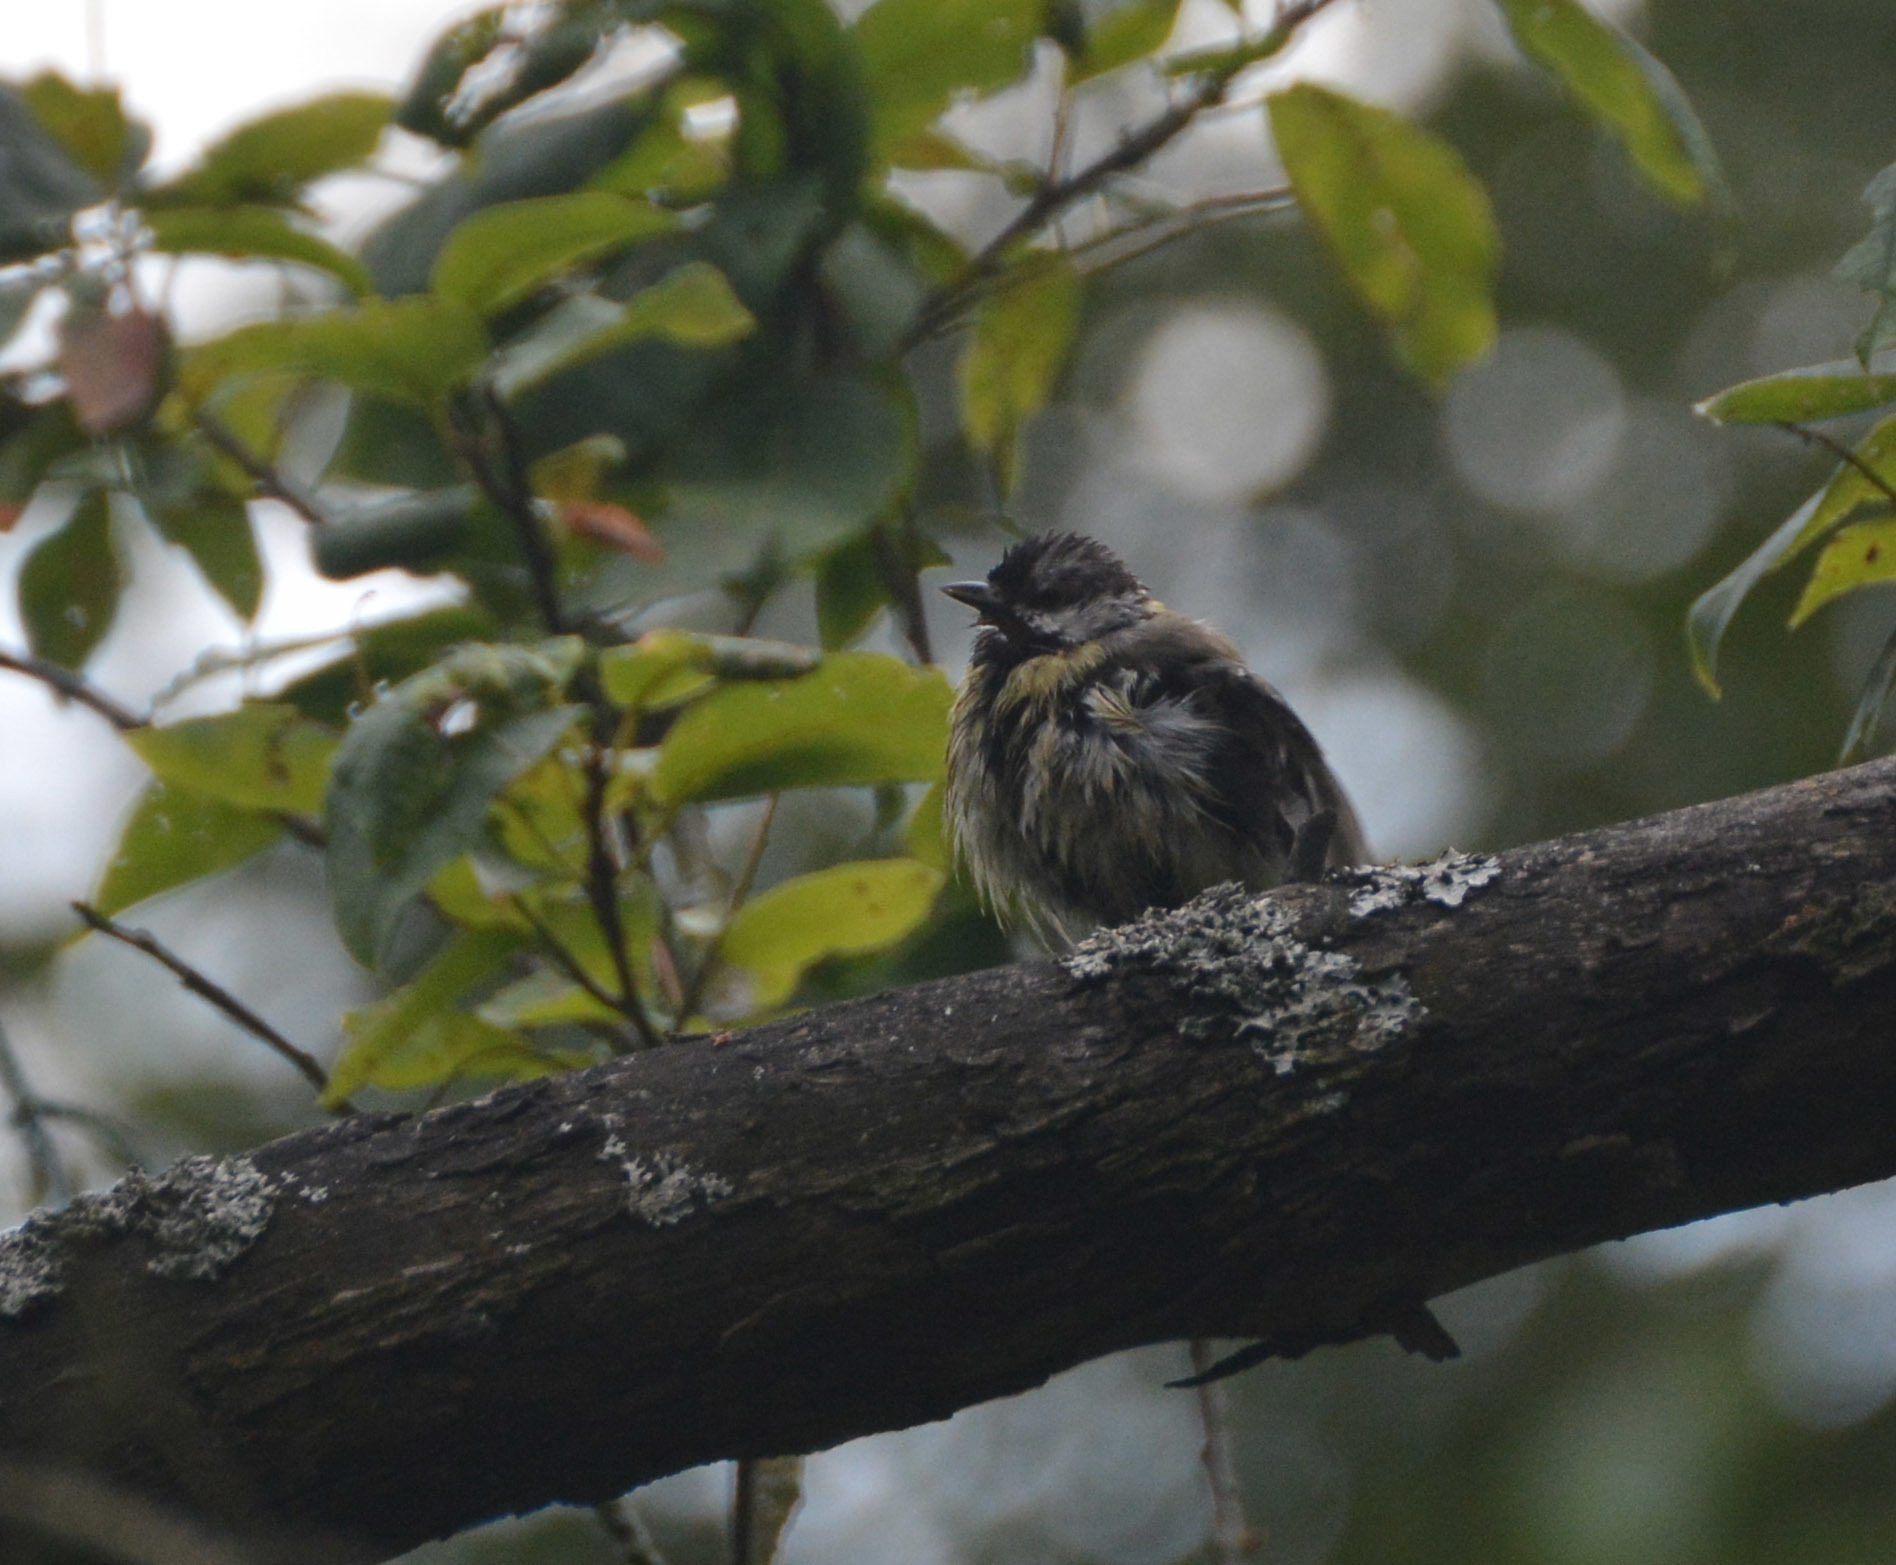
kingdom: Animalia
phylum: Chordata
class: Aves
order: Passeriformes
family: Paridae
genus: Parus
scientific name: Parus major
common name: Great tit
